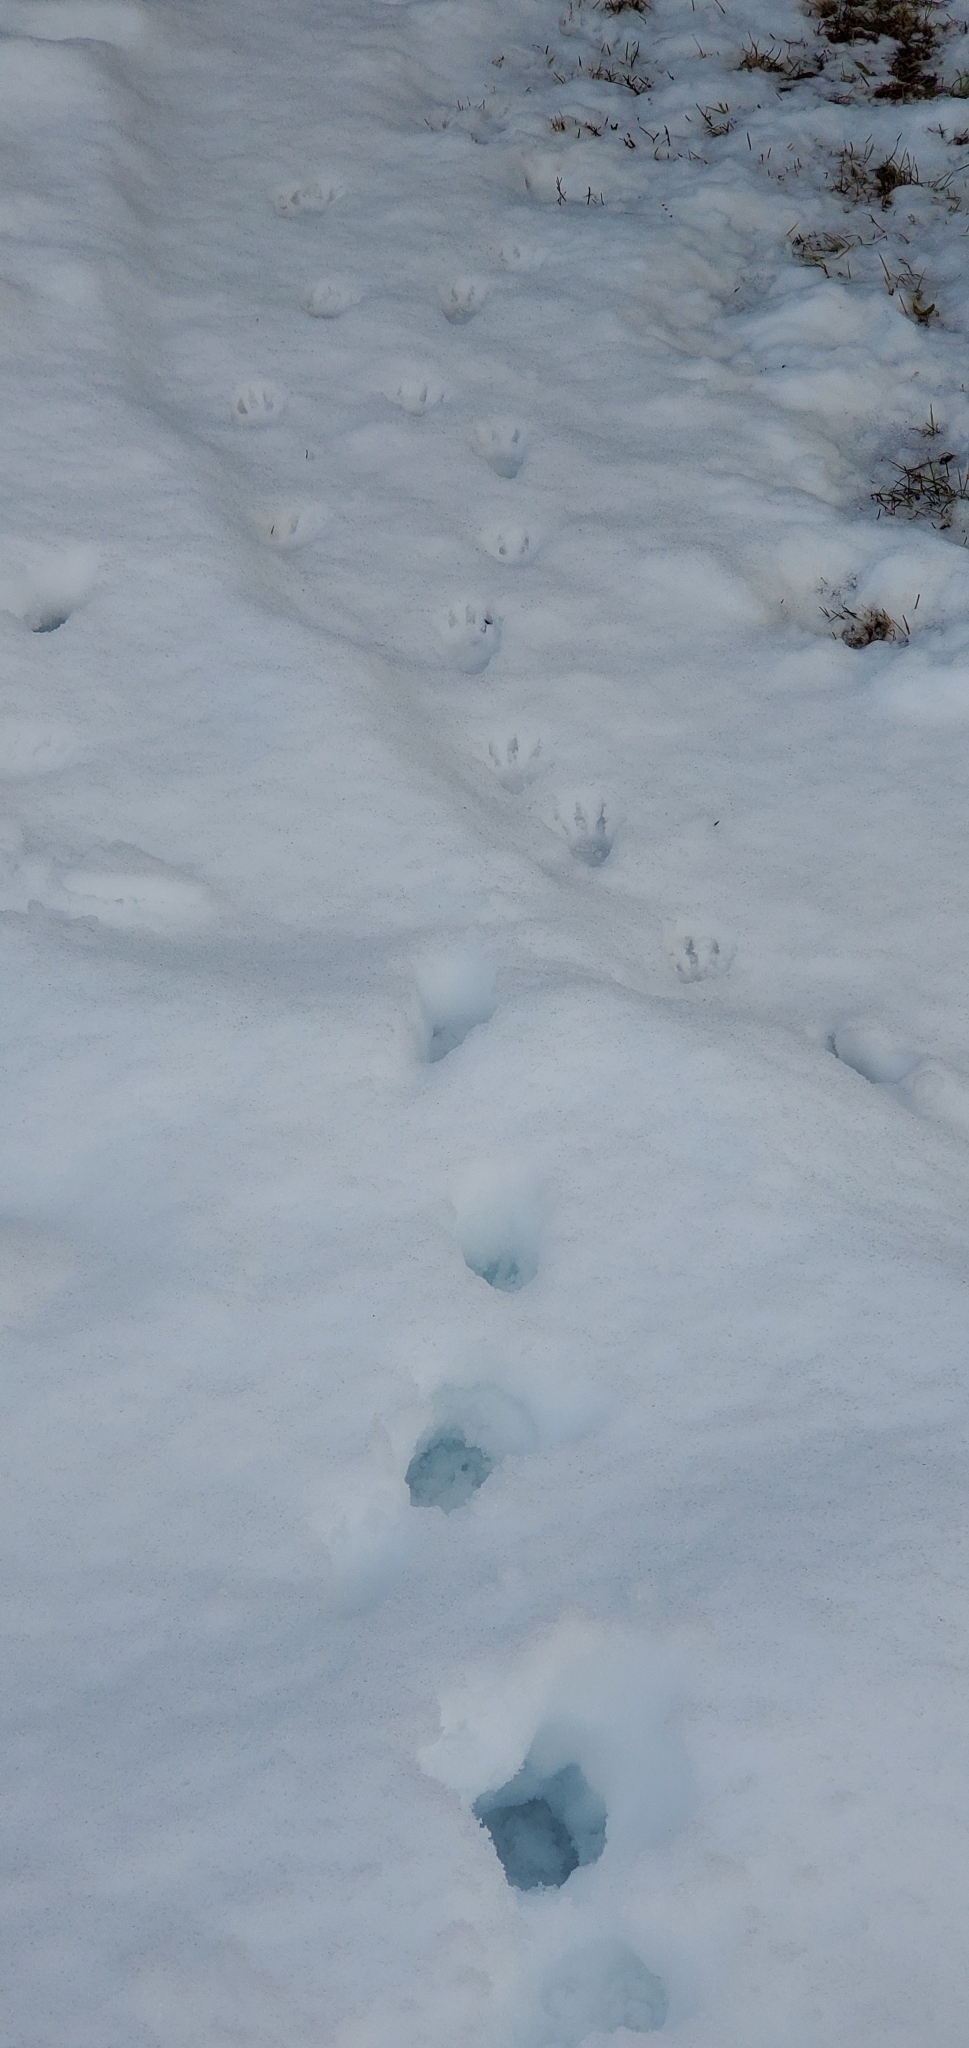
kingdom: Animalia
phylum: Chordata
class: Mammalia
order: Carnivora
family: Procyonidae
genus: Procyon
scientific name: Procyon lotor
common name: Raccoon
